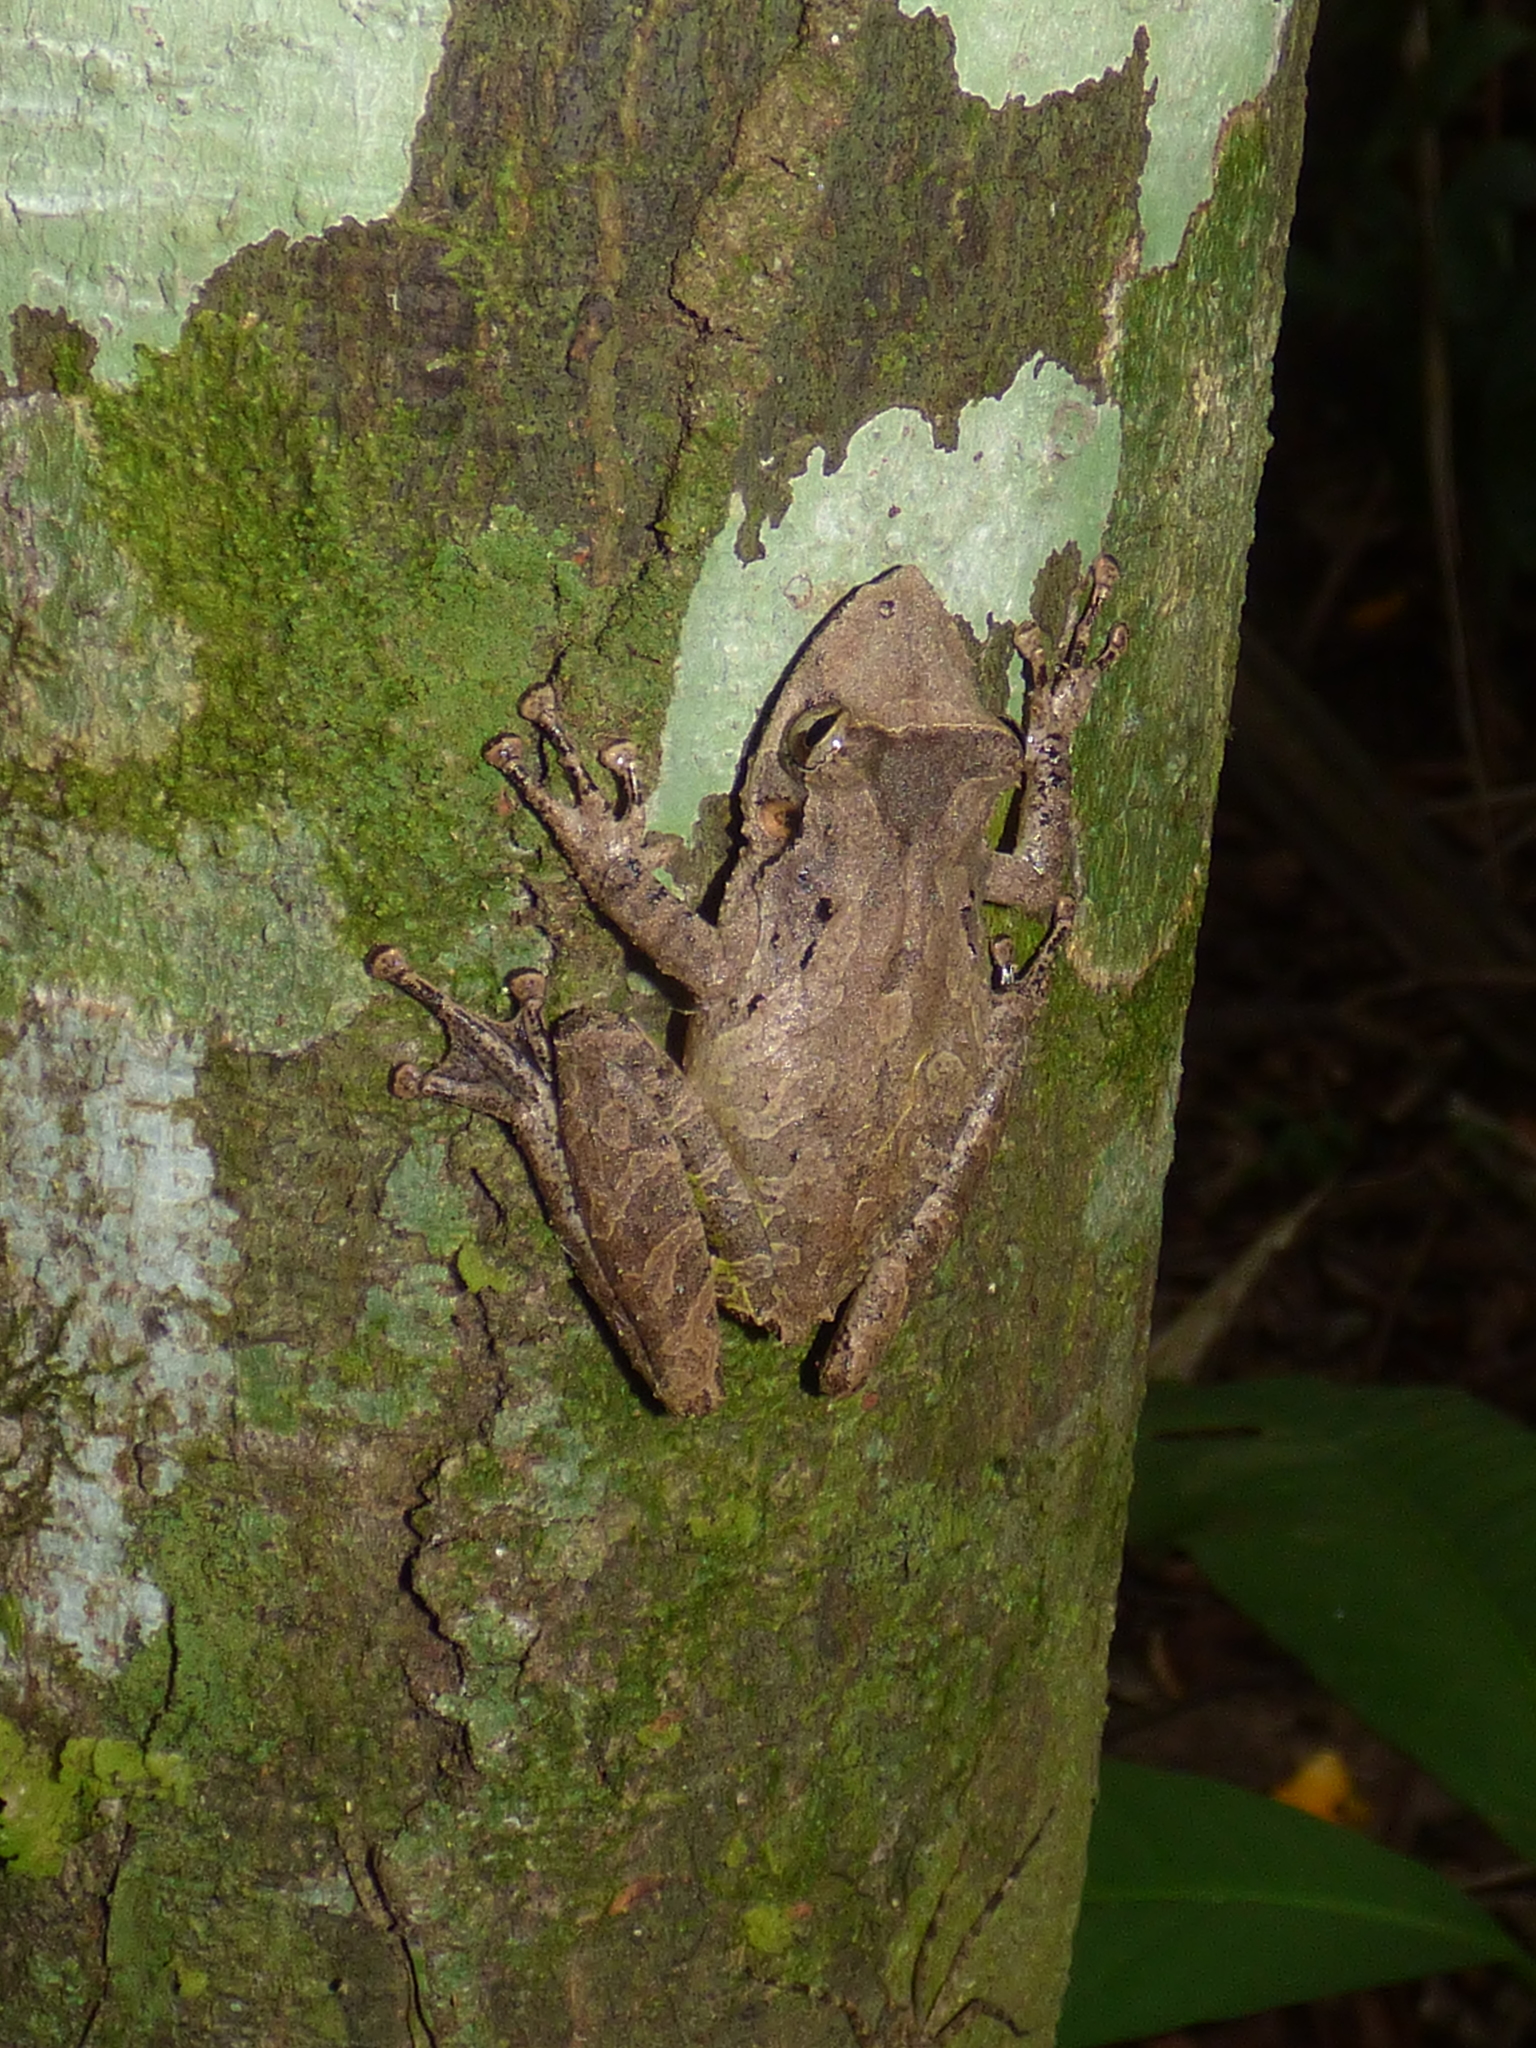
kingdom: Animalia
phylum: Chordata
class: Amphibia
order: Anura
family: Hylidae
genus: Scinax
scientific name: Scinax rostratus
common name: Caracas snouted treefrog
